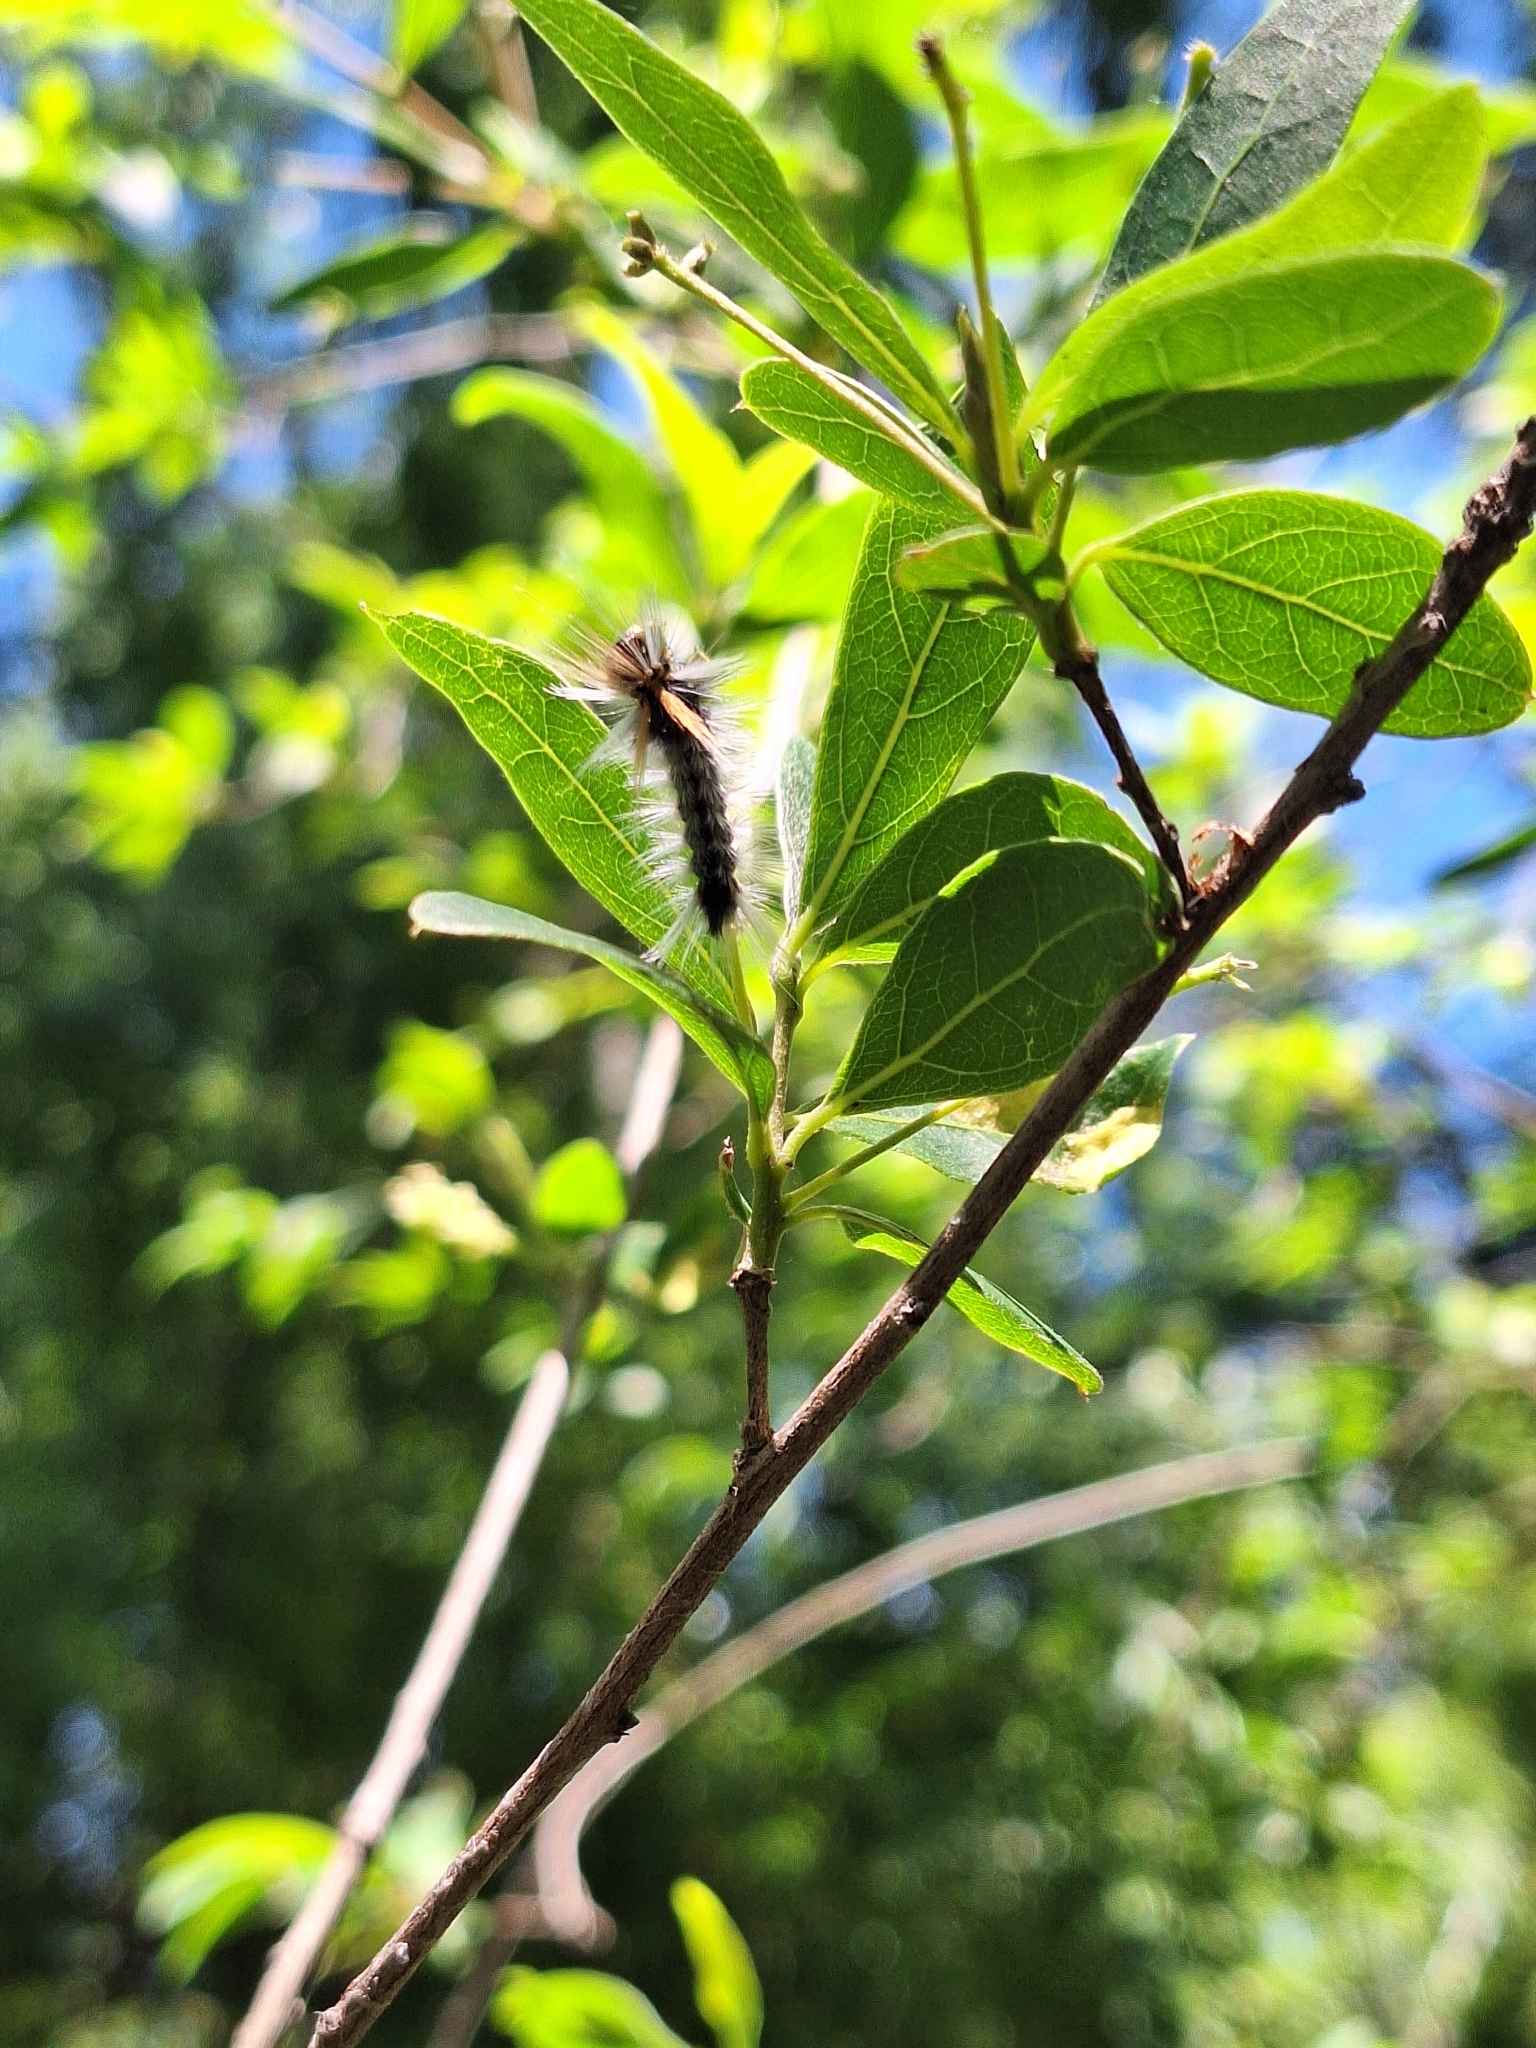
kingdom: Animalia
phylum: Arthropoda
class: Insecta
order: Lepidoptera
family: Erebidae
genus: Halysidota
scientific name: Halysidota ruscheweyhi
